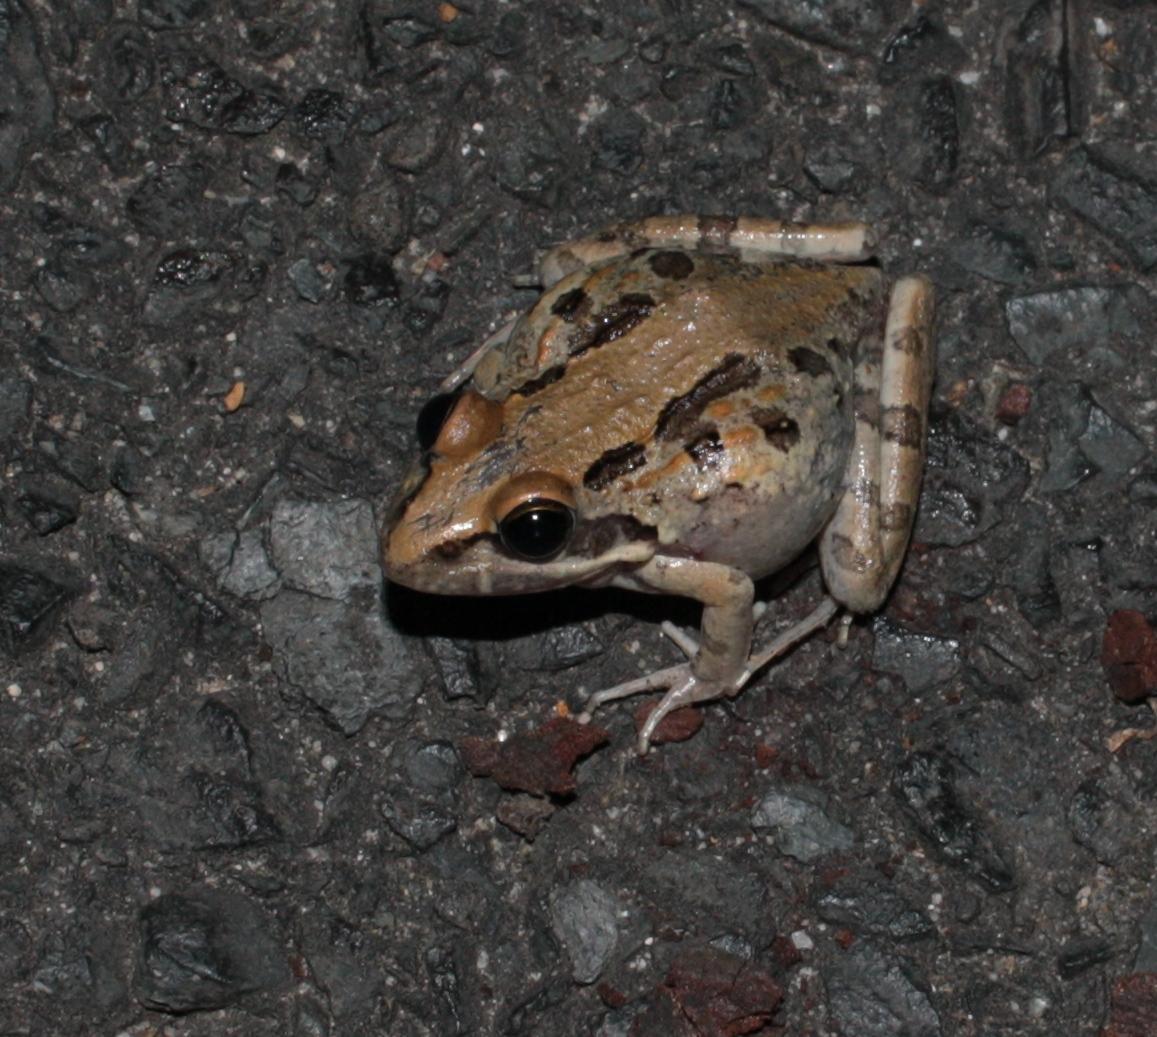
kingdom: Animalia
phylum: Chordata
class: Amphibia
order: Anura
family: Pyxicephalidae
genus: Strongylopus
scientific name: Strongylopus grayii
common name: Gray's stream frog
